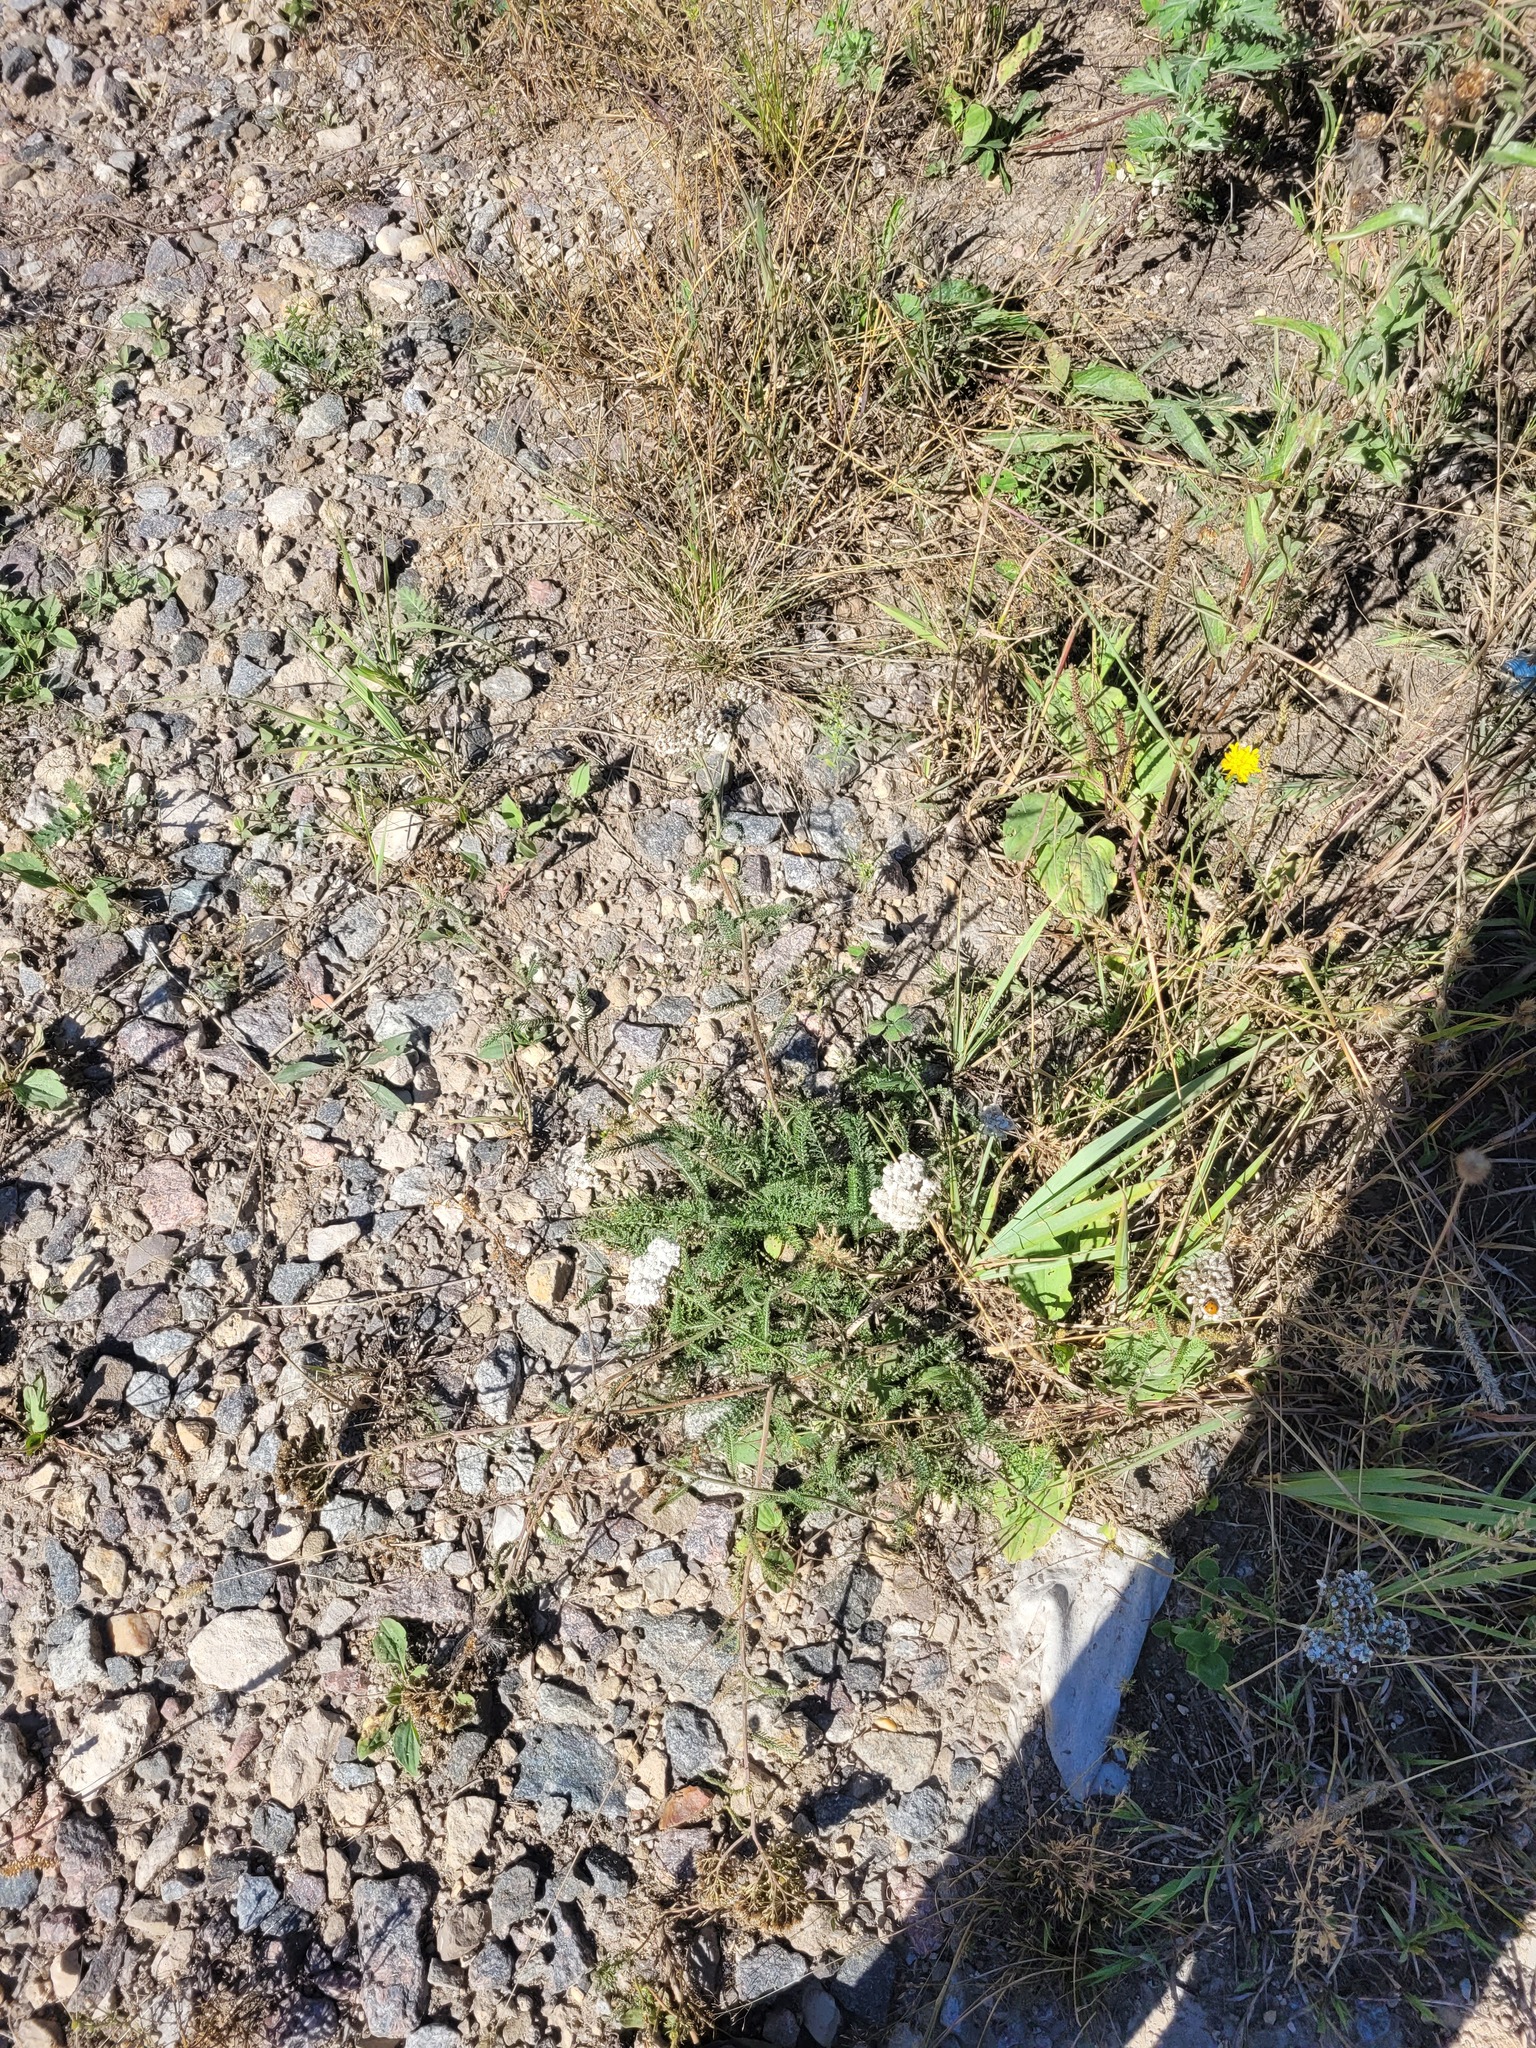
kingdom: Plantae
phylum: Tracheophyta
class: Magnoliopsida
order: Asterales
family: Asteraceae
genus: Achillea
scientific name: Achillea millefolium
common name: Yarrow
